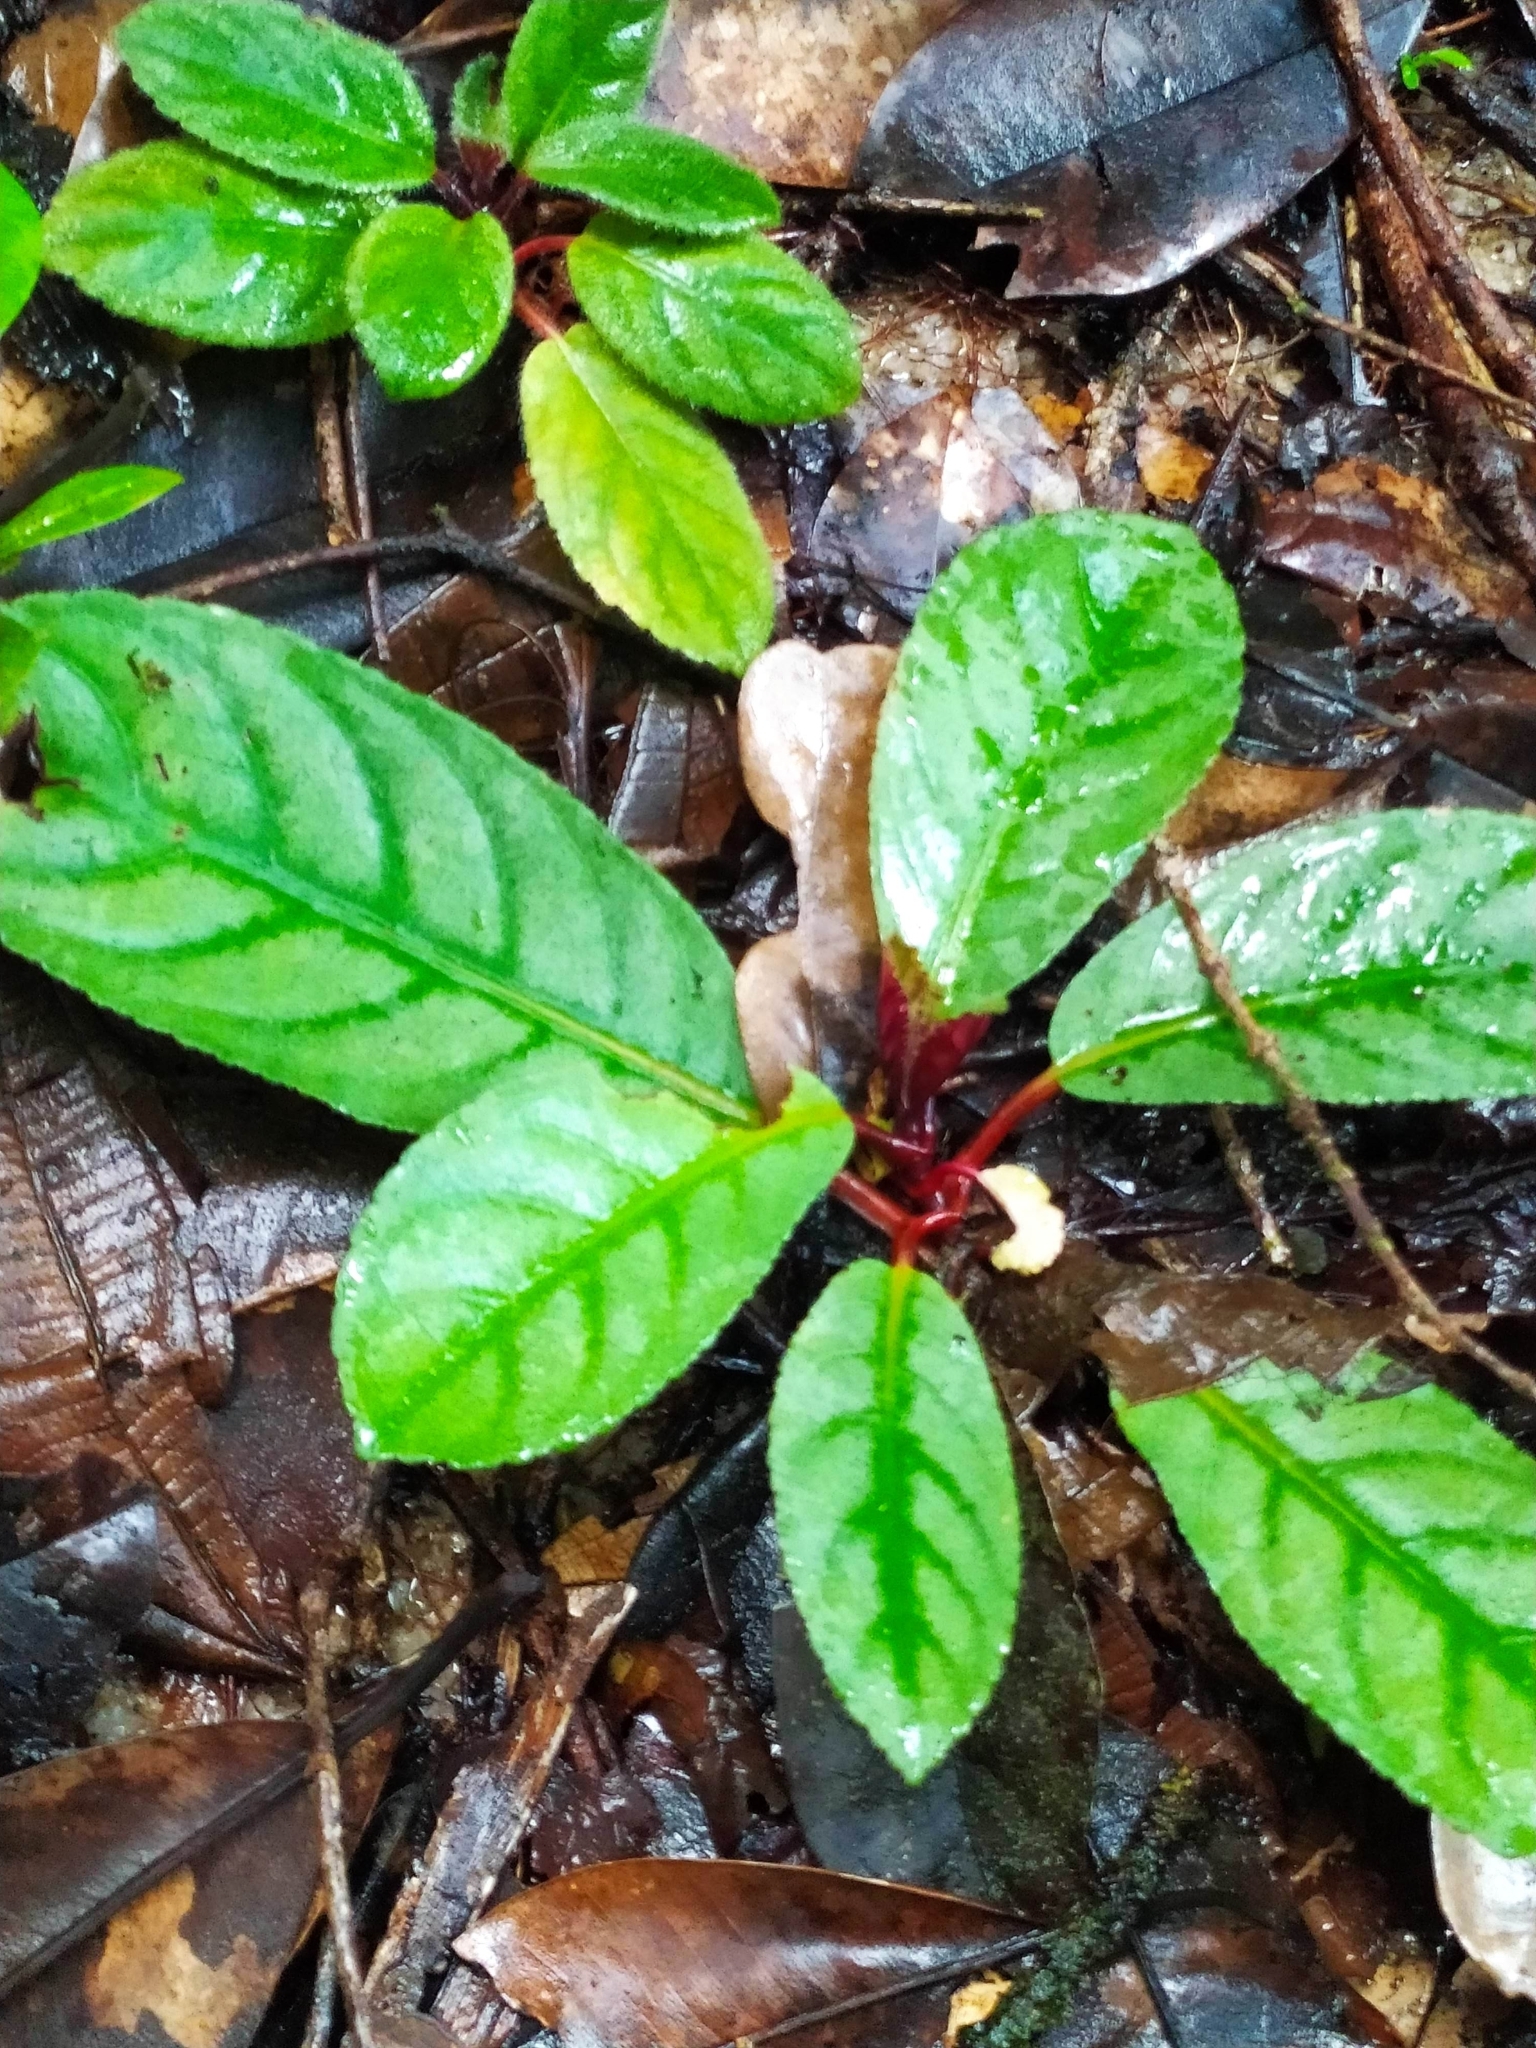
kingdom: Plantae
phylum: Tracheophyta
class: Magnoliopsida
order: Lamiales
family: Gesneriaceae
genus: Centrosolenia
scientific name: Centrosolenia densa
